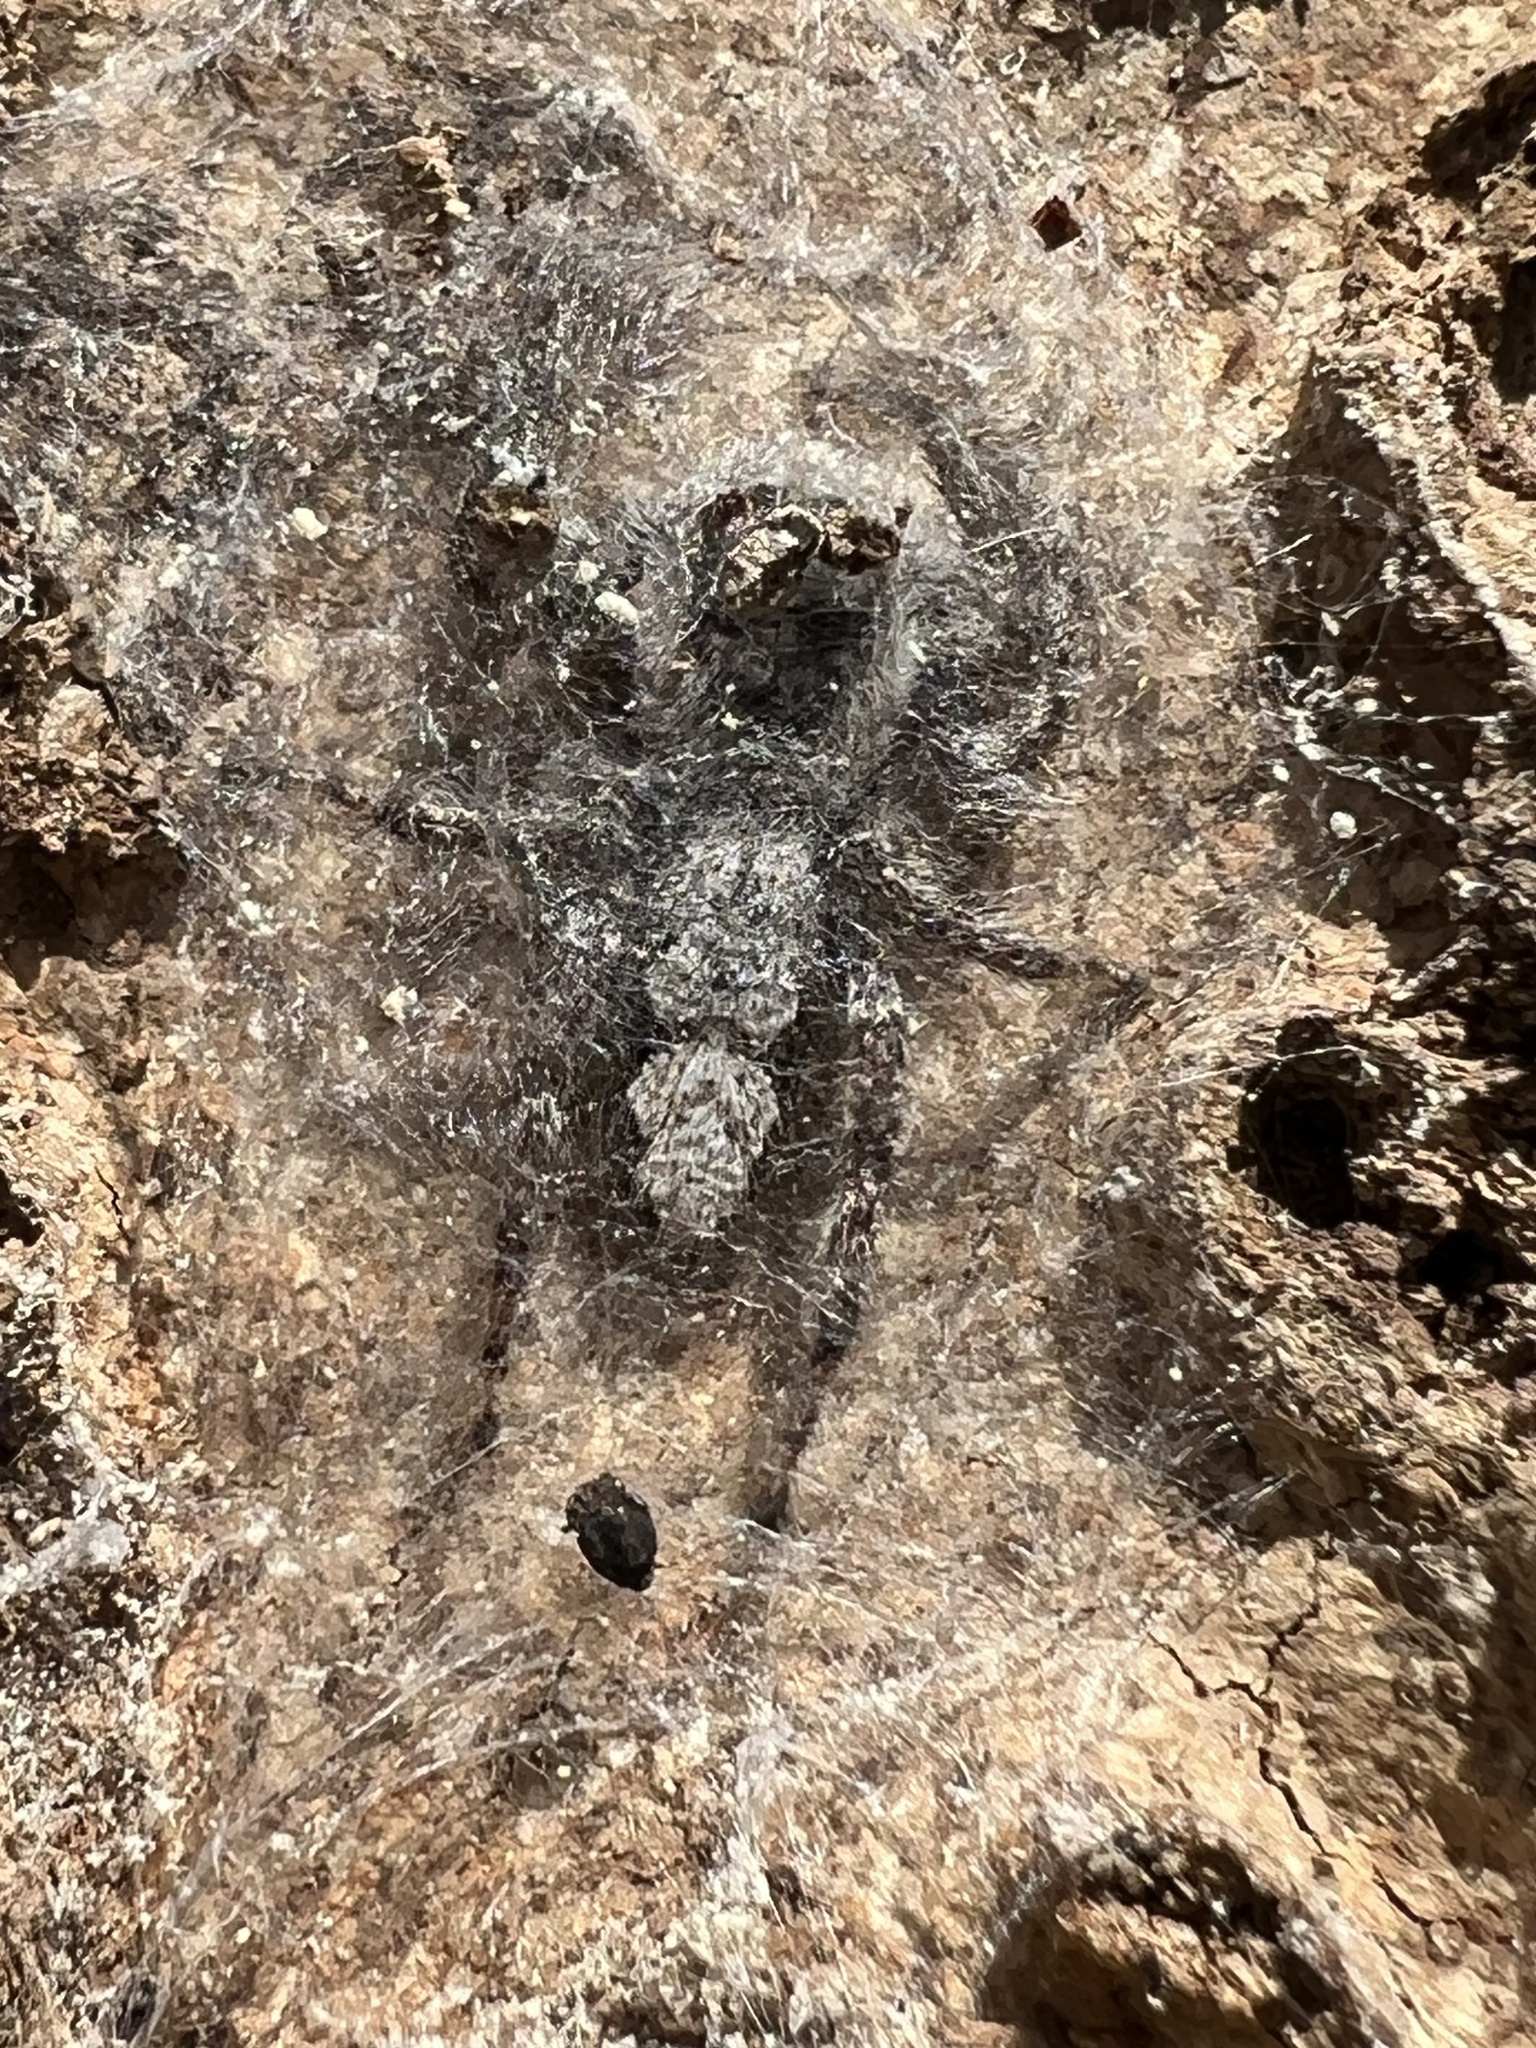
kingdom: Animalia
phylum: Arthropoda
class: Arachnida
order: Araneae
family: Salticidae
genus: Platycryptus
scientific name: Platycryptus undatus
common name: Tan jumping spider
